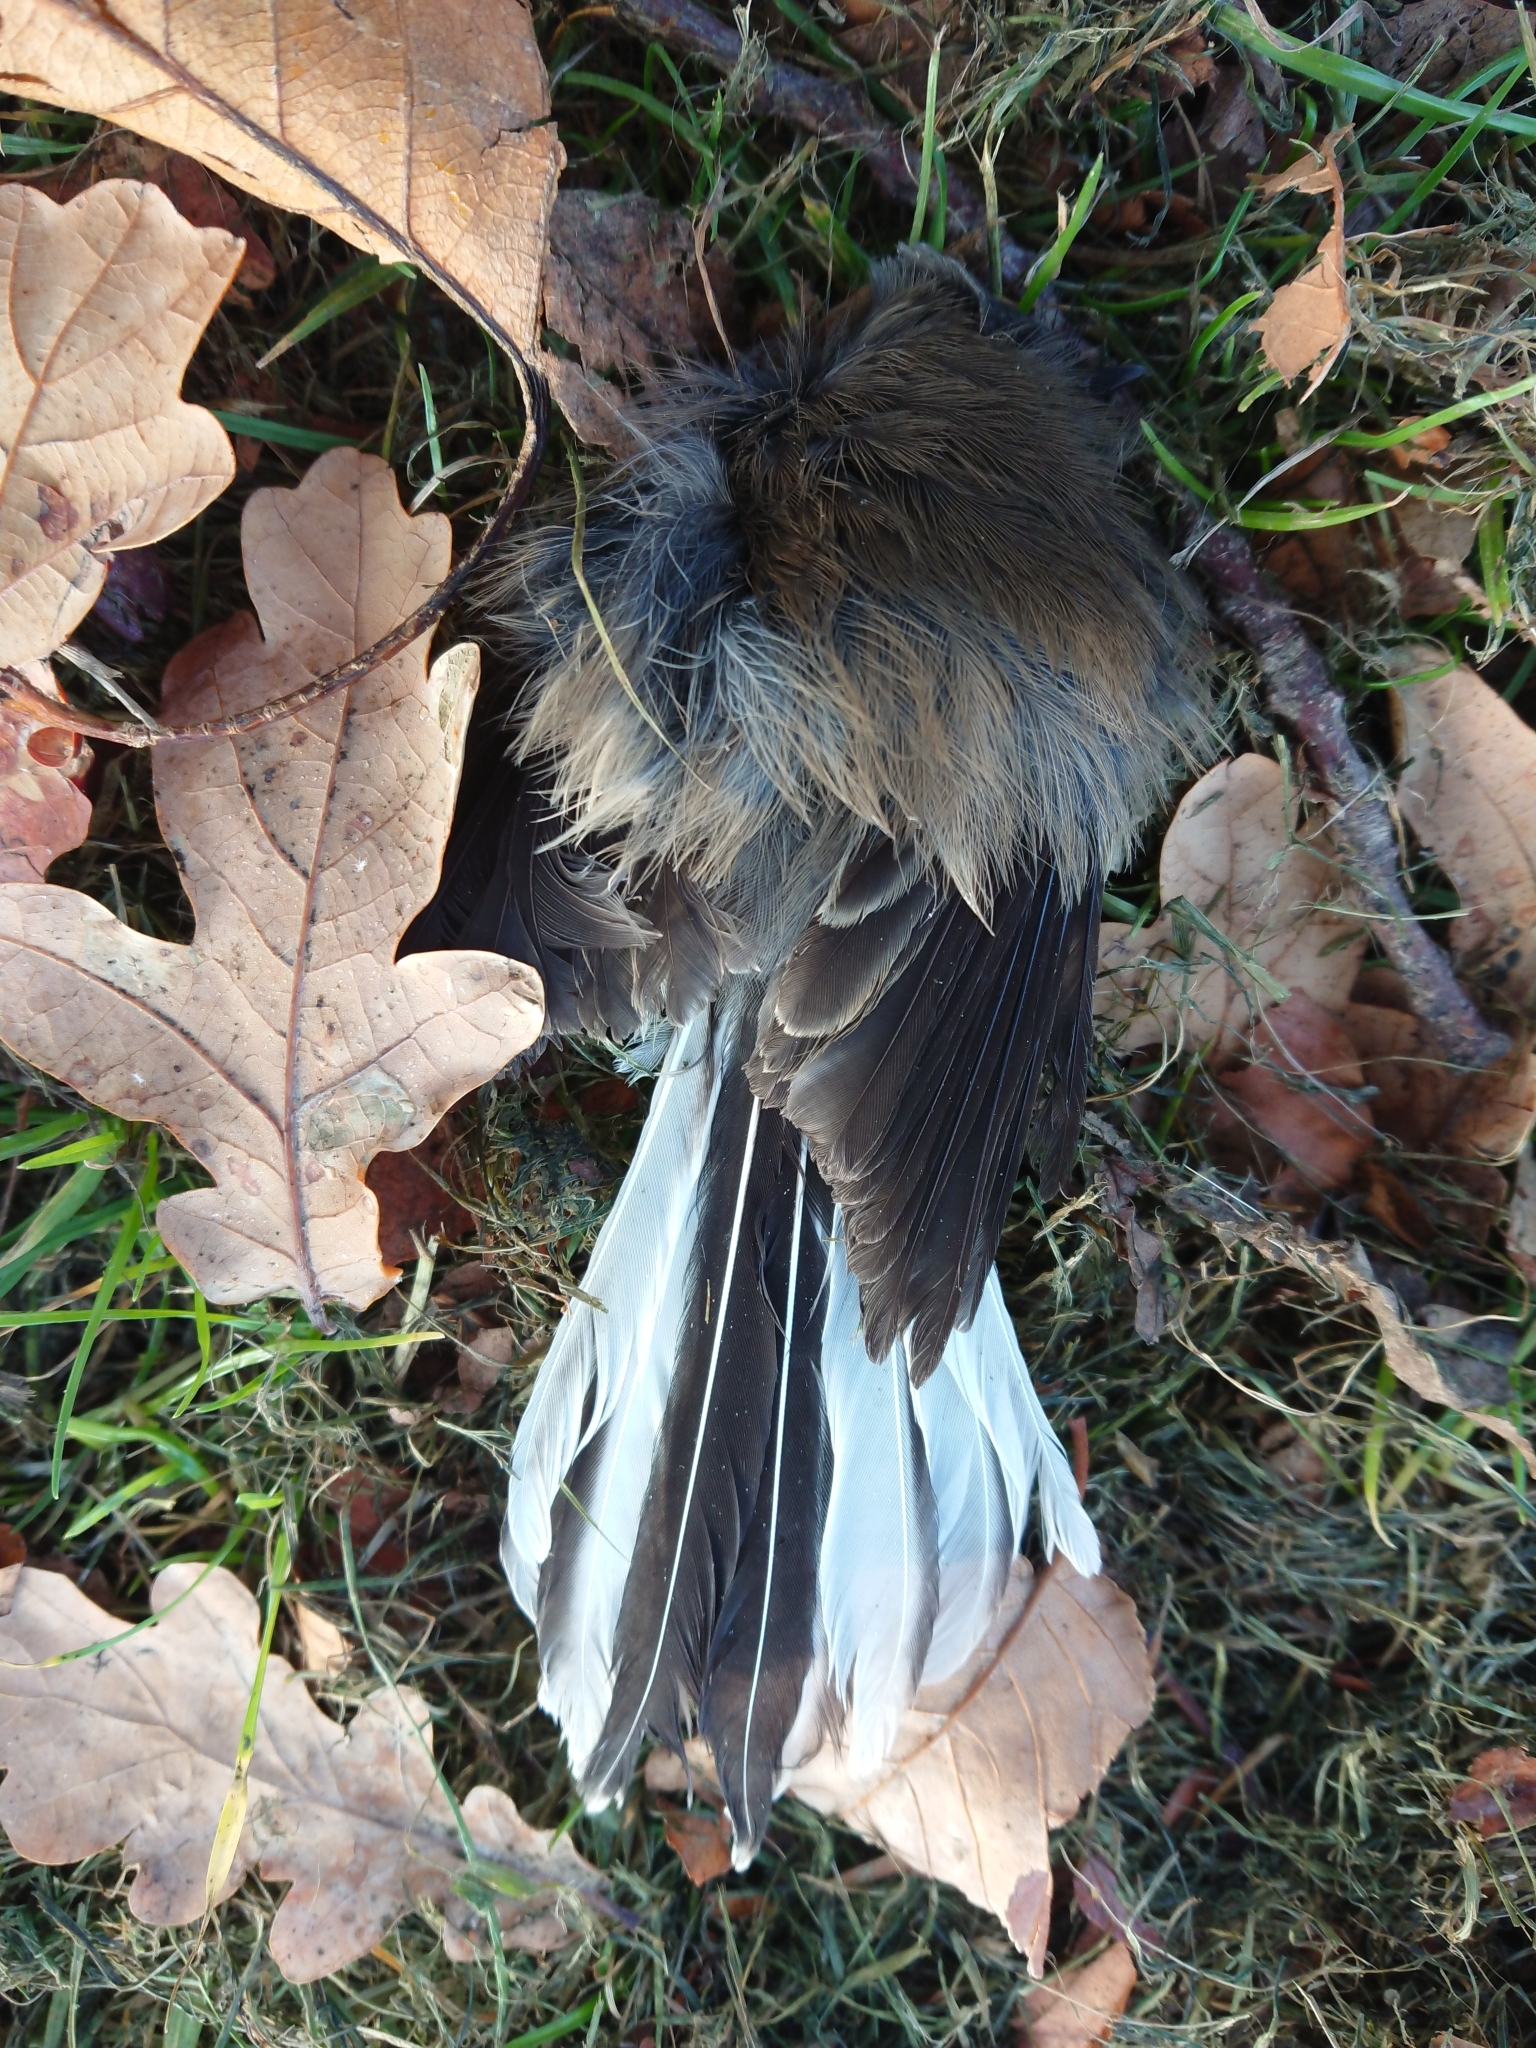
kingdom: Animalia
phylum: Chordata
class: Aves
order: Passeriformes
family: Rhipiduridae
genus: Rhipidura
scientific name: Rhipidura fuliginosa
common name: New zealand fantail
